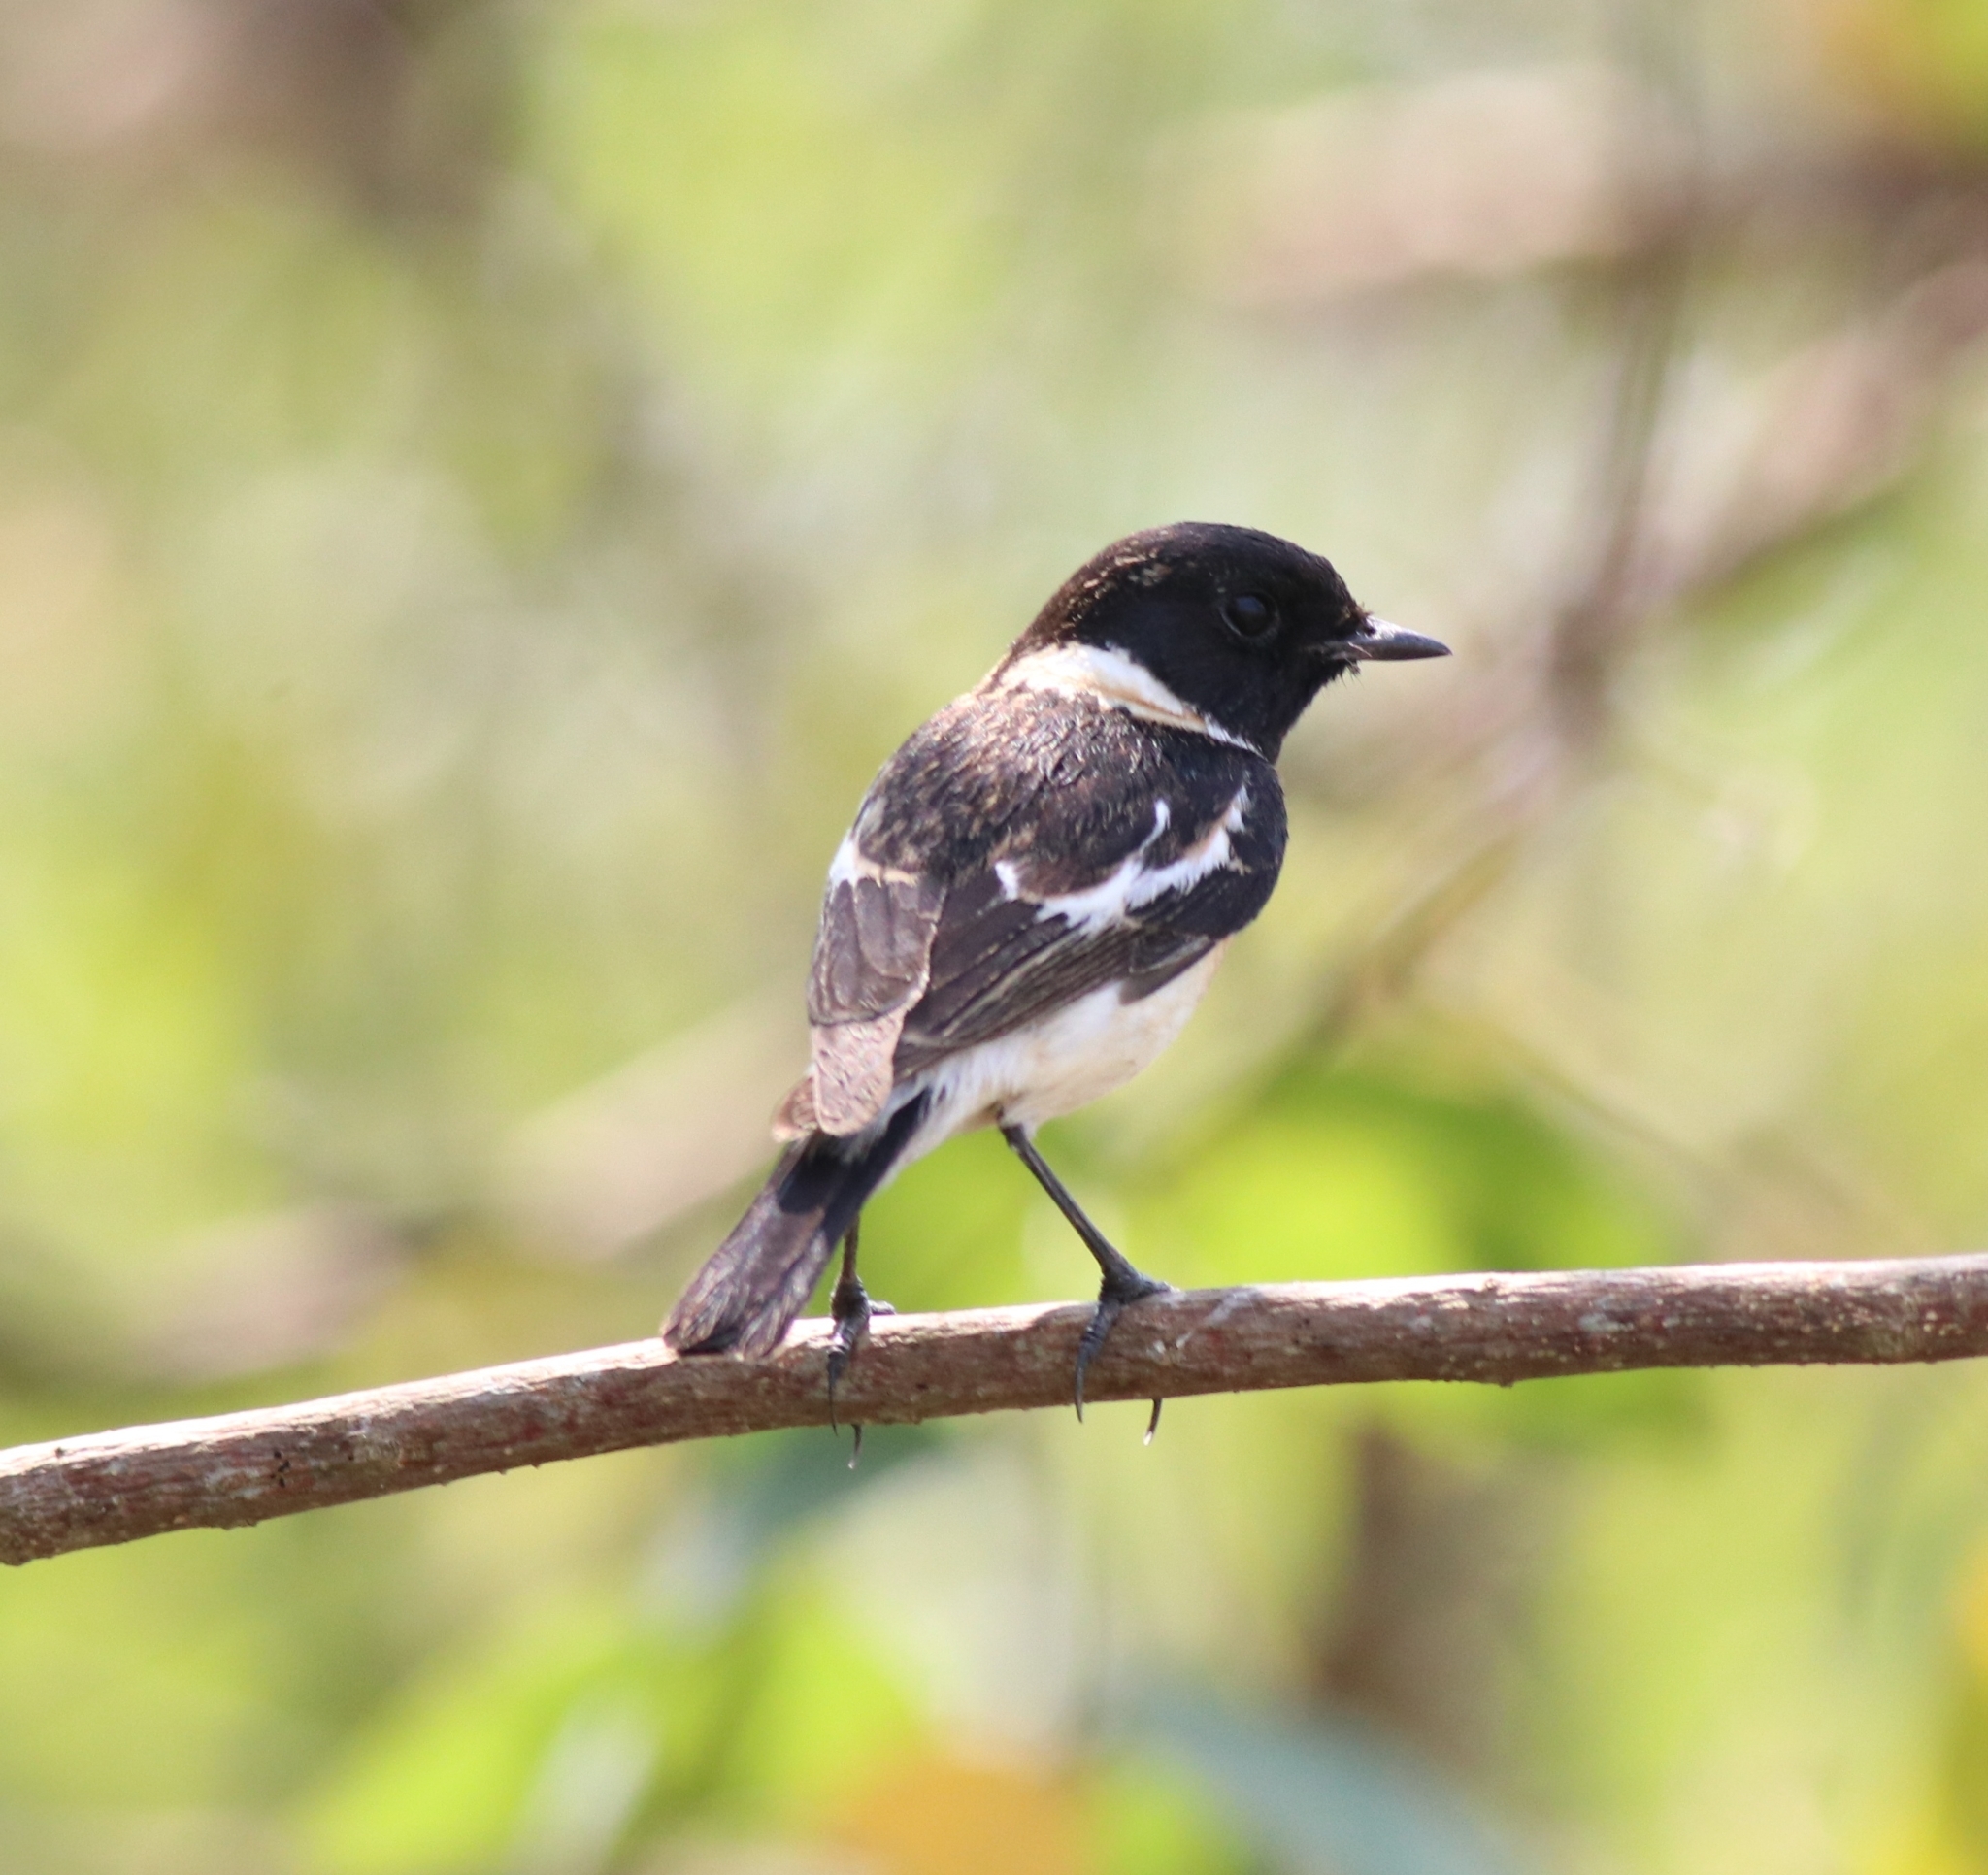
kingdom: Animalia
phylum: Chordata
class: Aves
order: Passeriformes
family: Muscicapidae
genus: Saxicola
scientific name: Saxicola maurus
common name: Siberian stonechat
